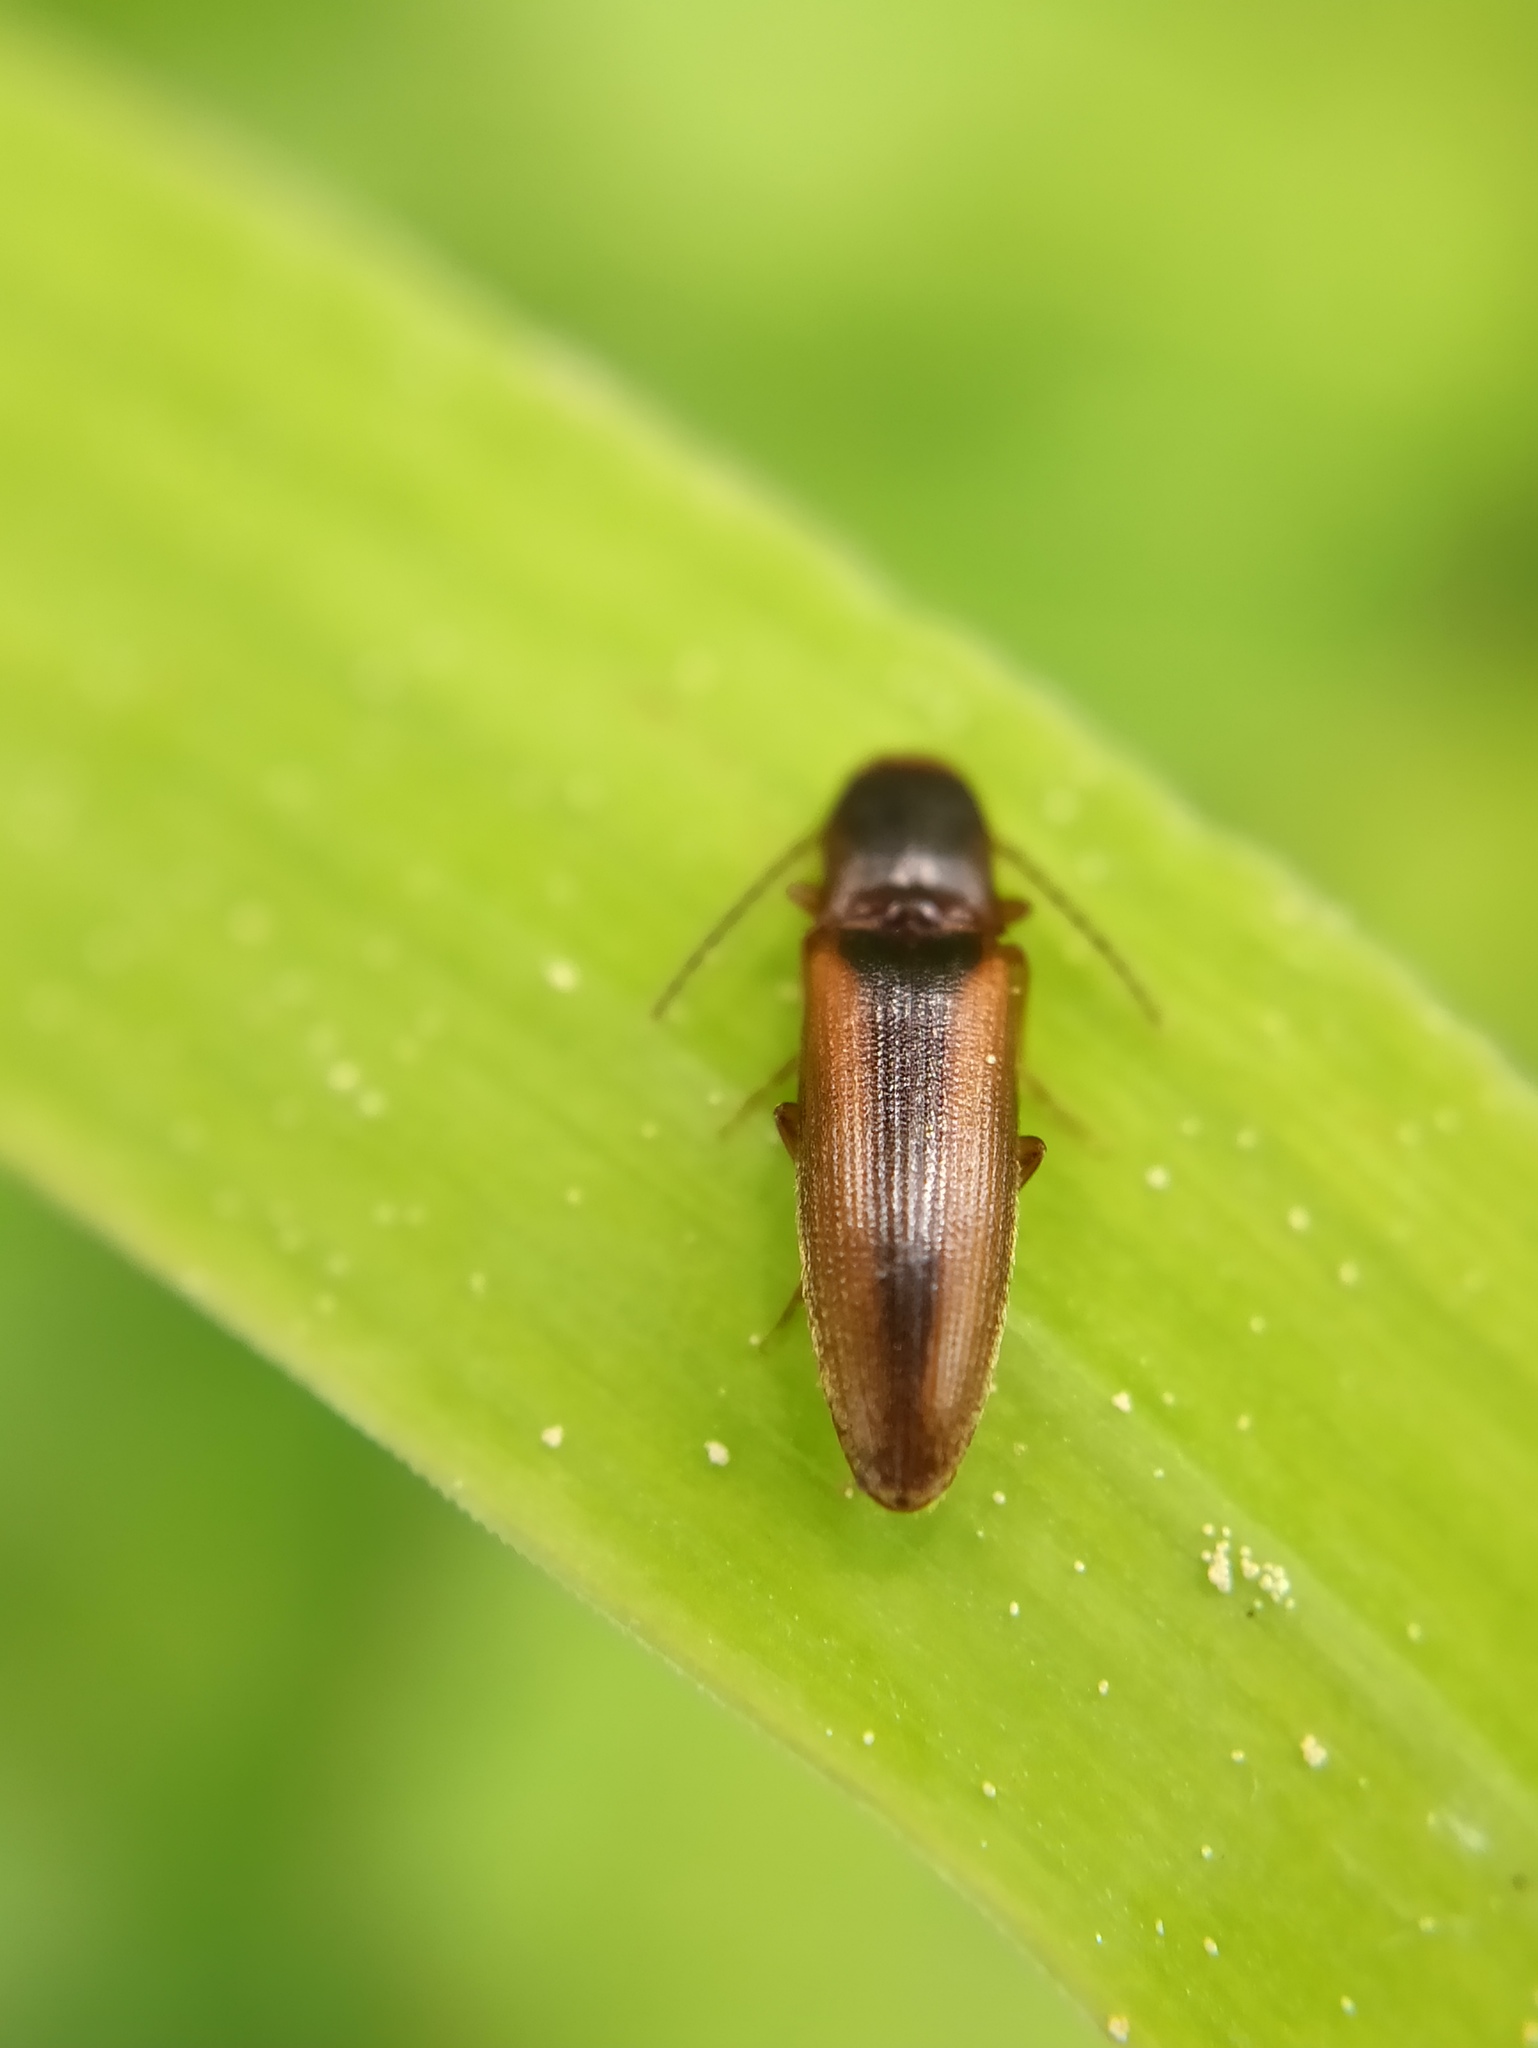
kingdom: Animalia
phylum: Arthropoda
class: Insecta
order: Coleoptera
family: Elateridae
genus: Dalopius
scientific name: Dalopius marginatus
